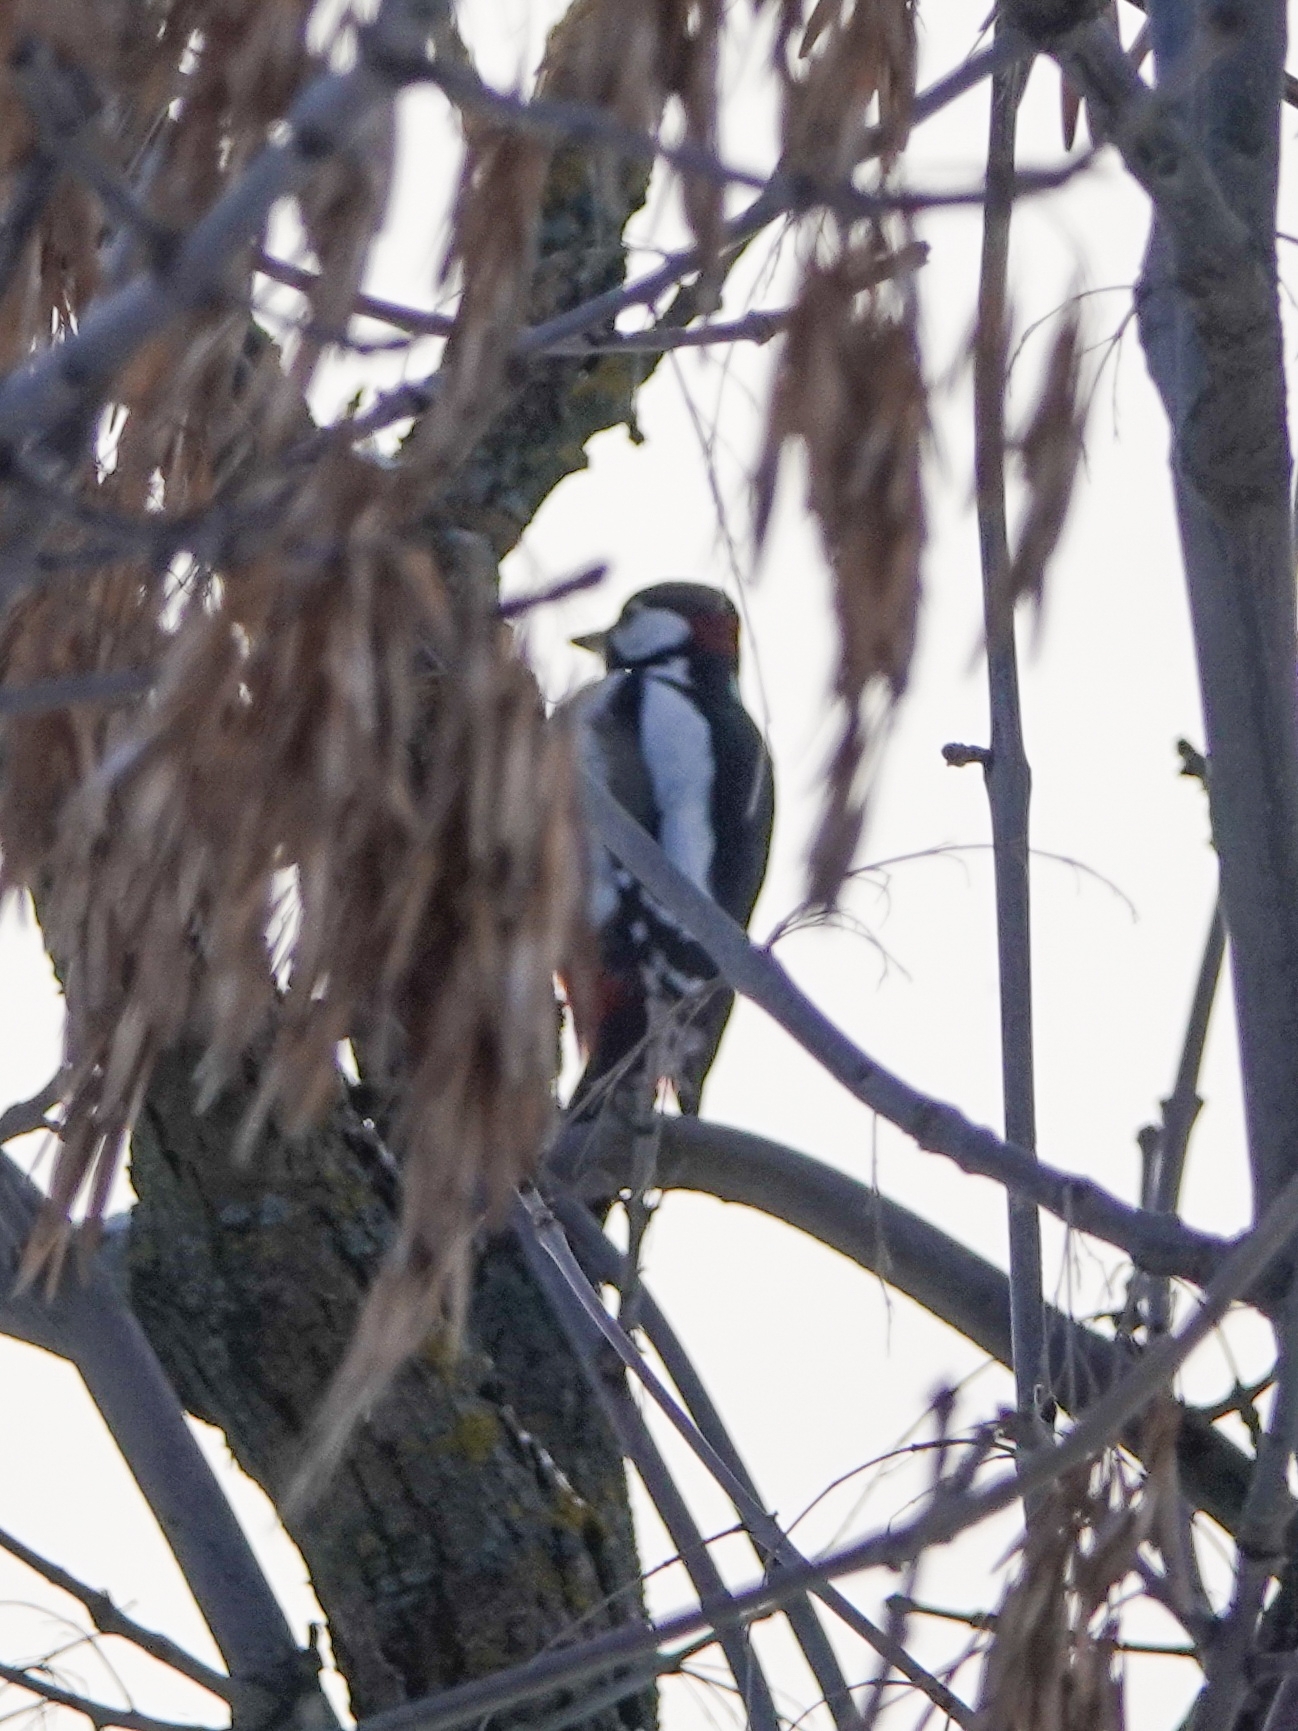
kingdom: Animalia
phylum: Chordata
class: Aves
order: Piciformes
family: Picidae
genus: Dendrocopos
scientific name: Dendrocopos major
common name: Great spotted woodpecker
